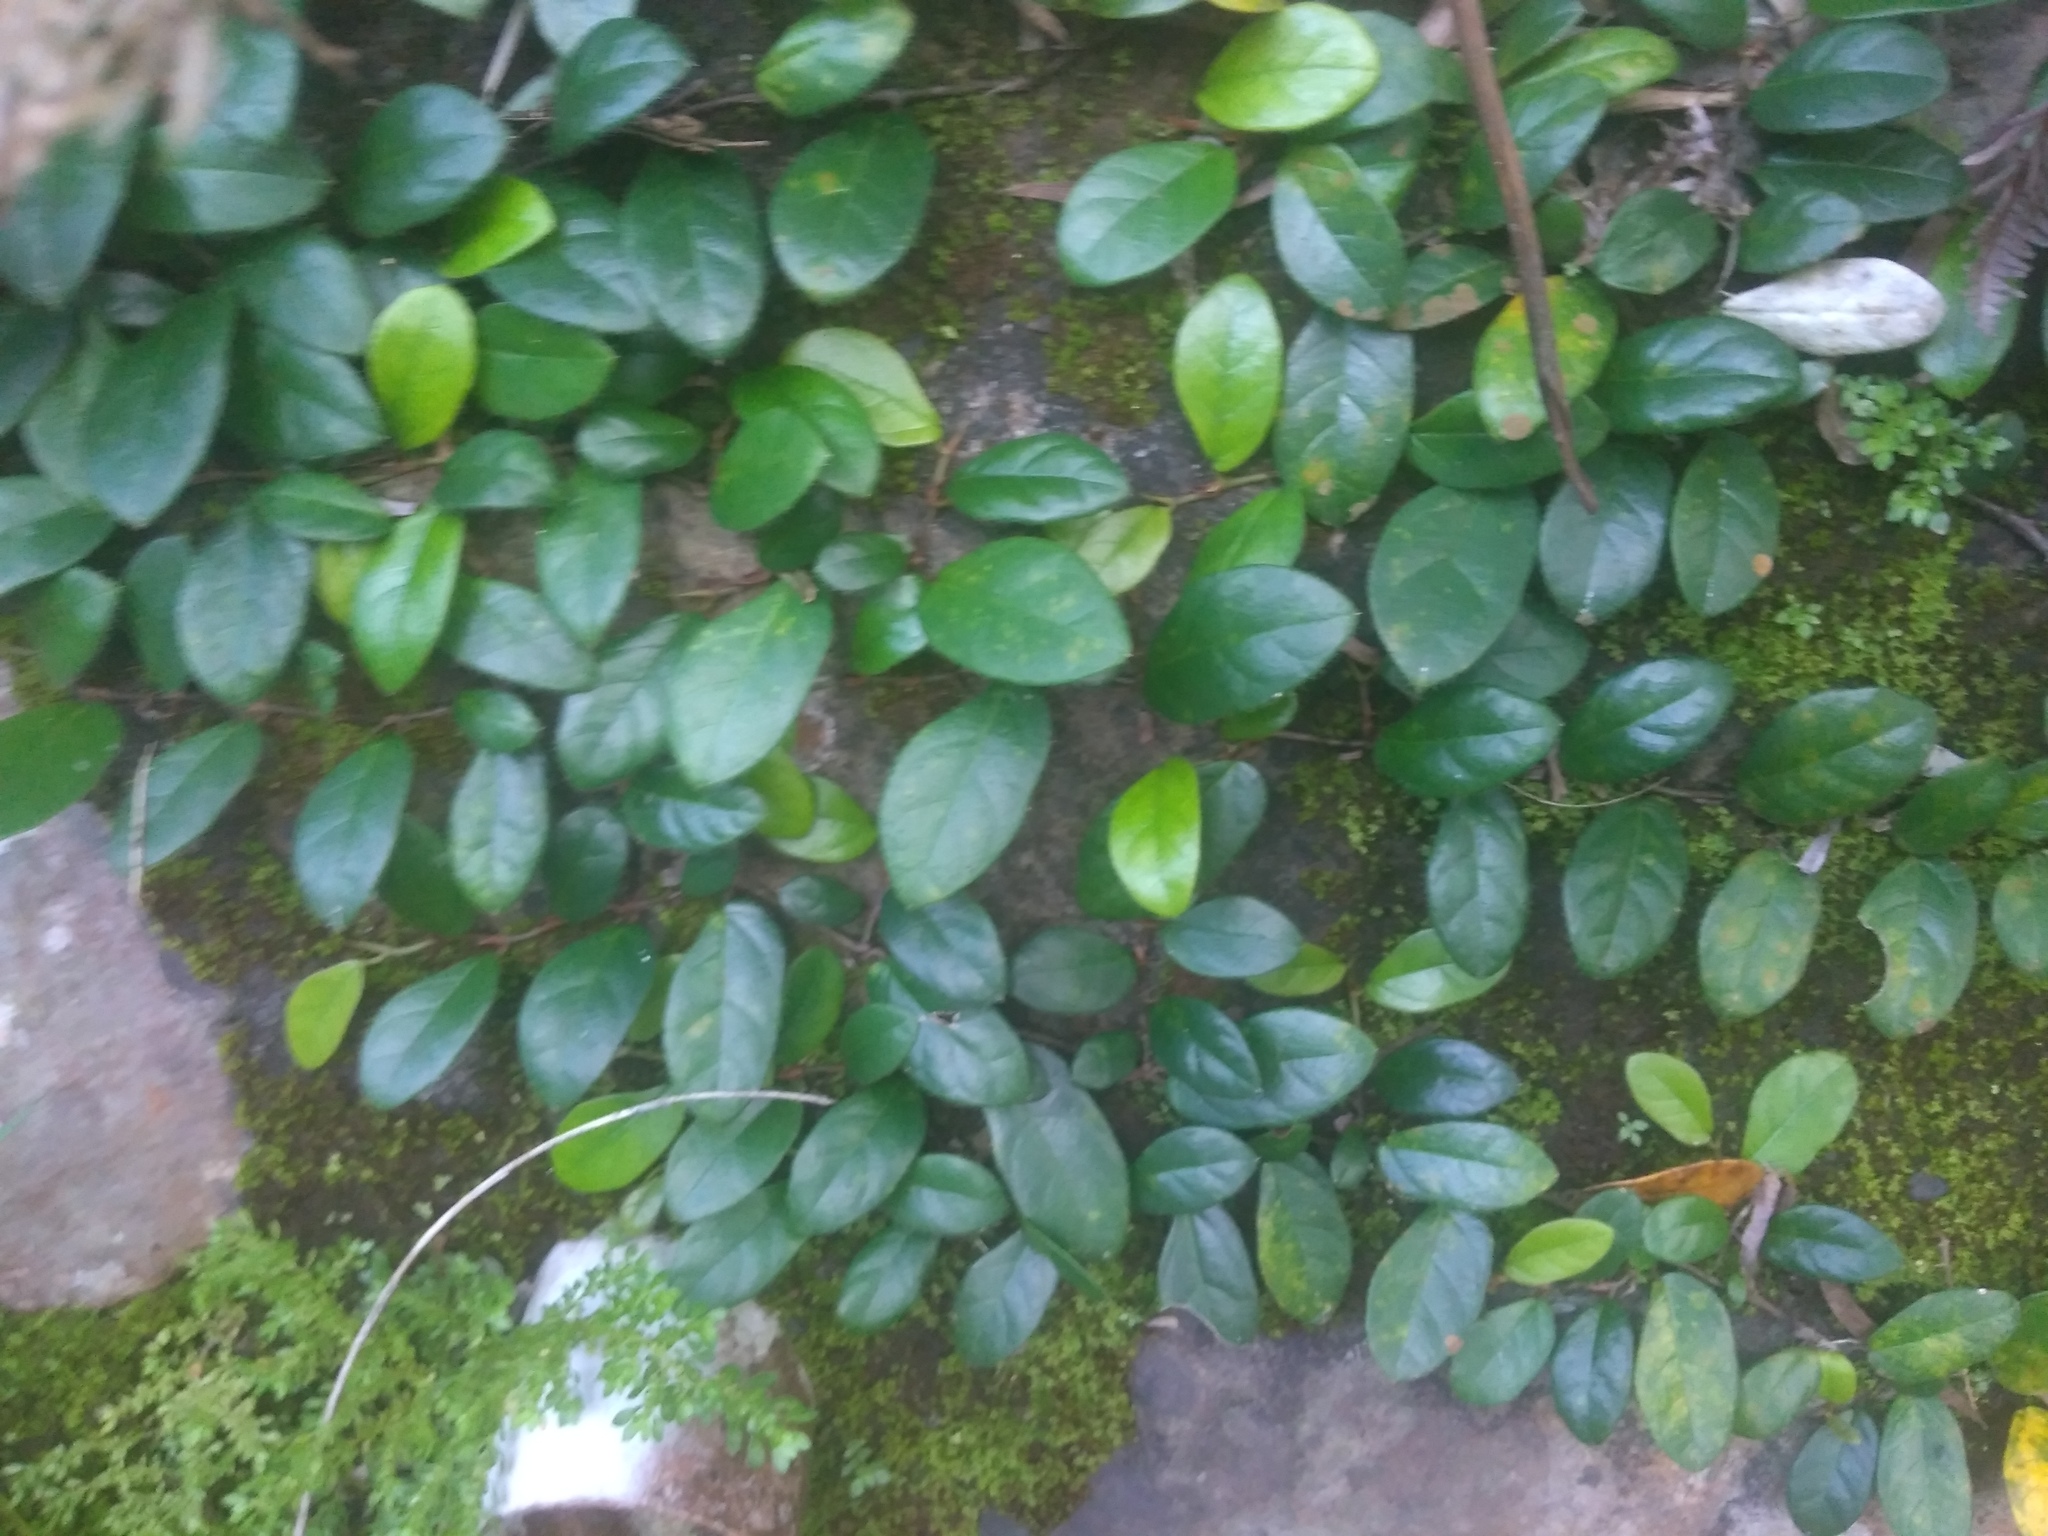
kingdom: Plantae
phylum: Tracheophyta
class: Magnoliopsida
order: Rosales
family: Moraceae
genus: Ficus
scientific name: Ficus pumila
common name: Climbingfig
